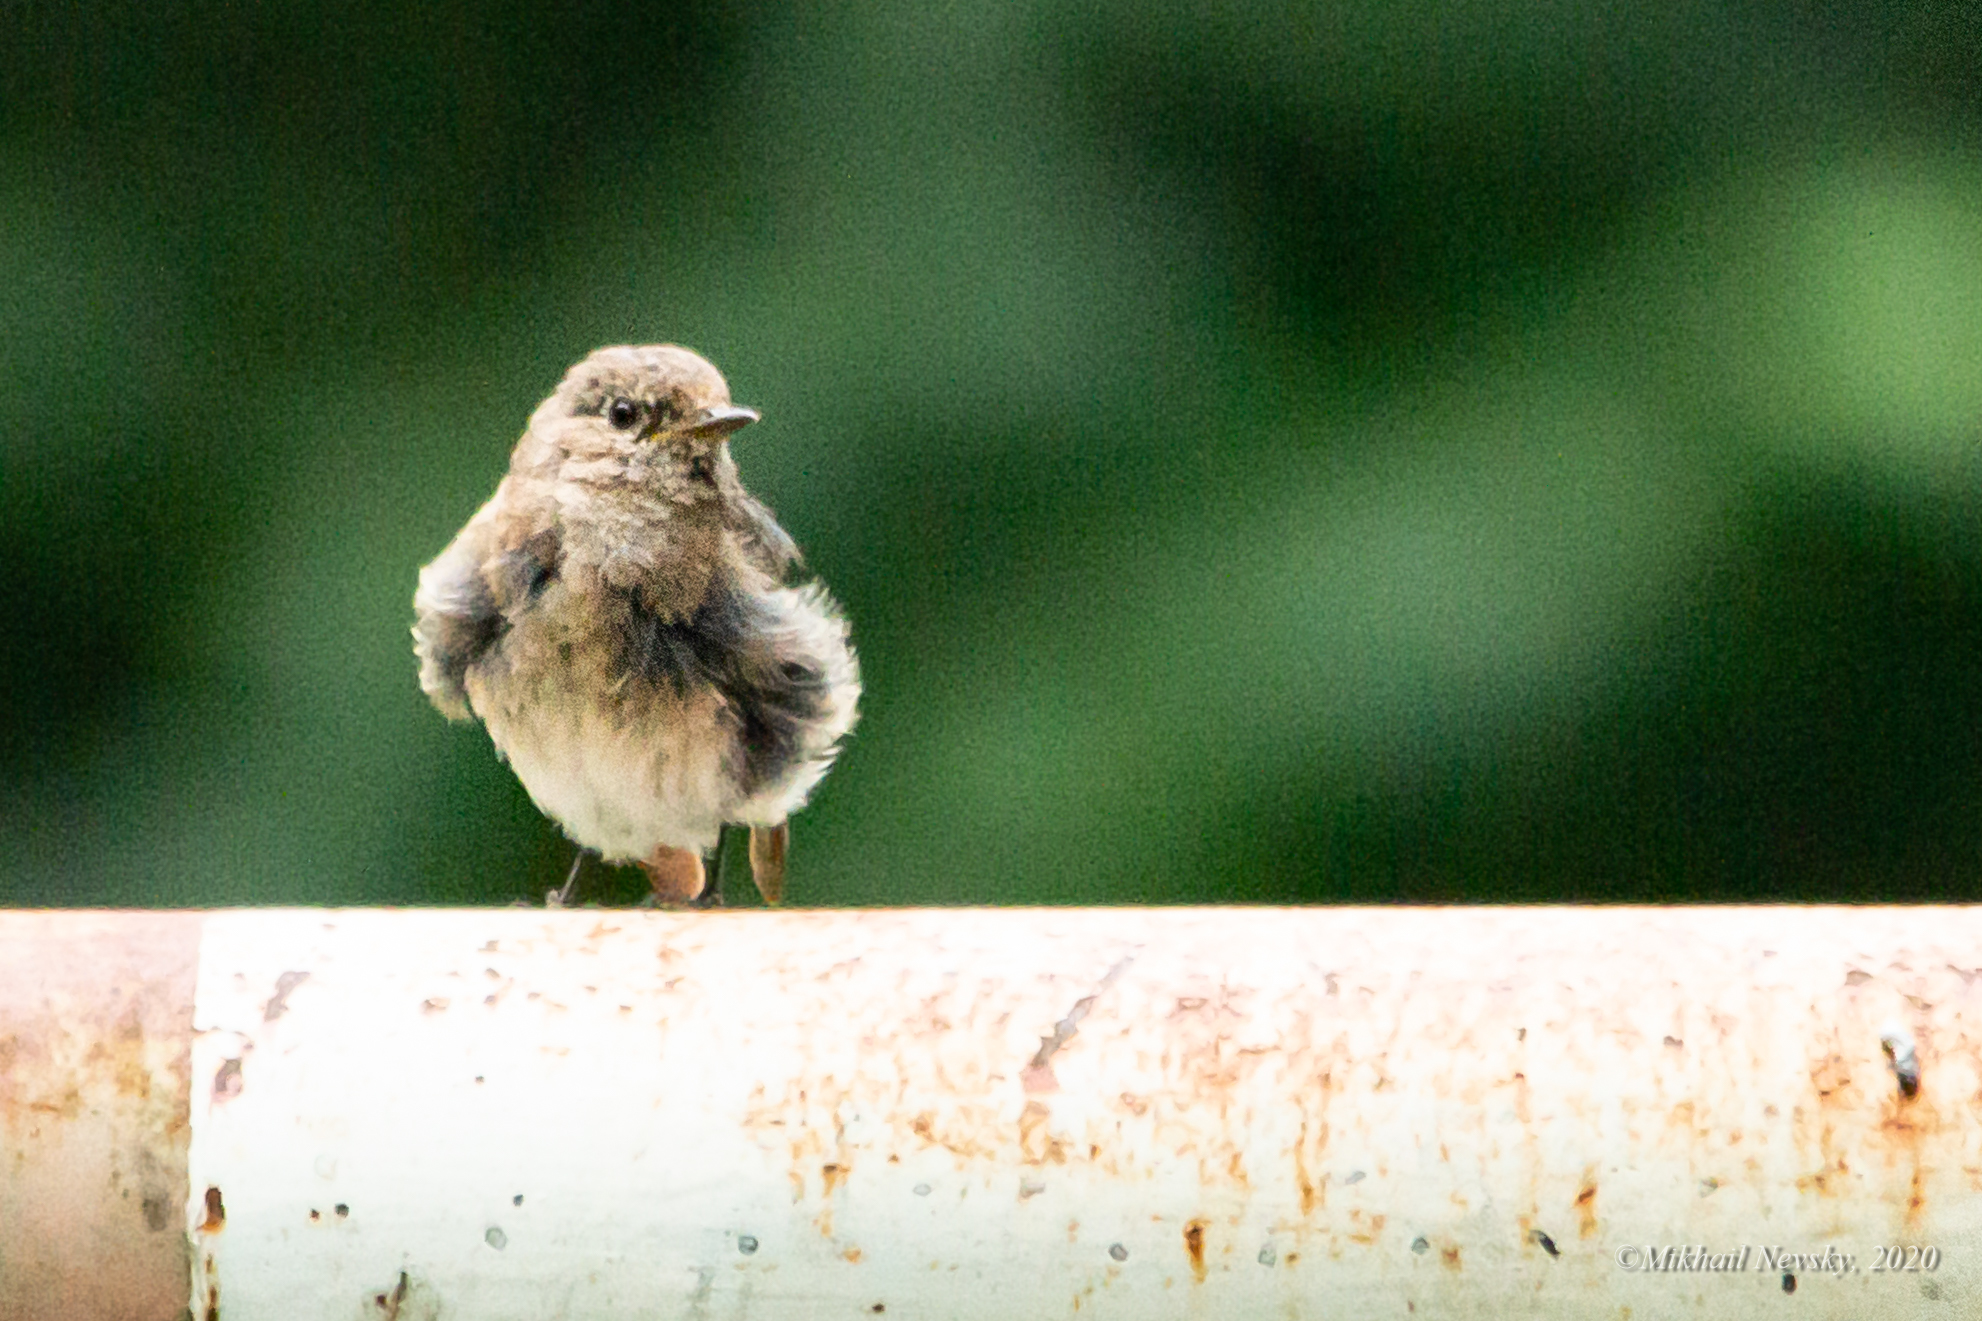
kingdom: Animalia
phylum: Chordata
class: Aves
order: Passeriformes
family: Muscicapidae
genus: Phoenicurus
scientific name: Phoenicurus phoenicurus
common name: Common redstart
